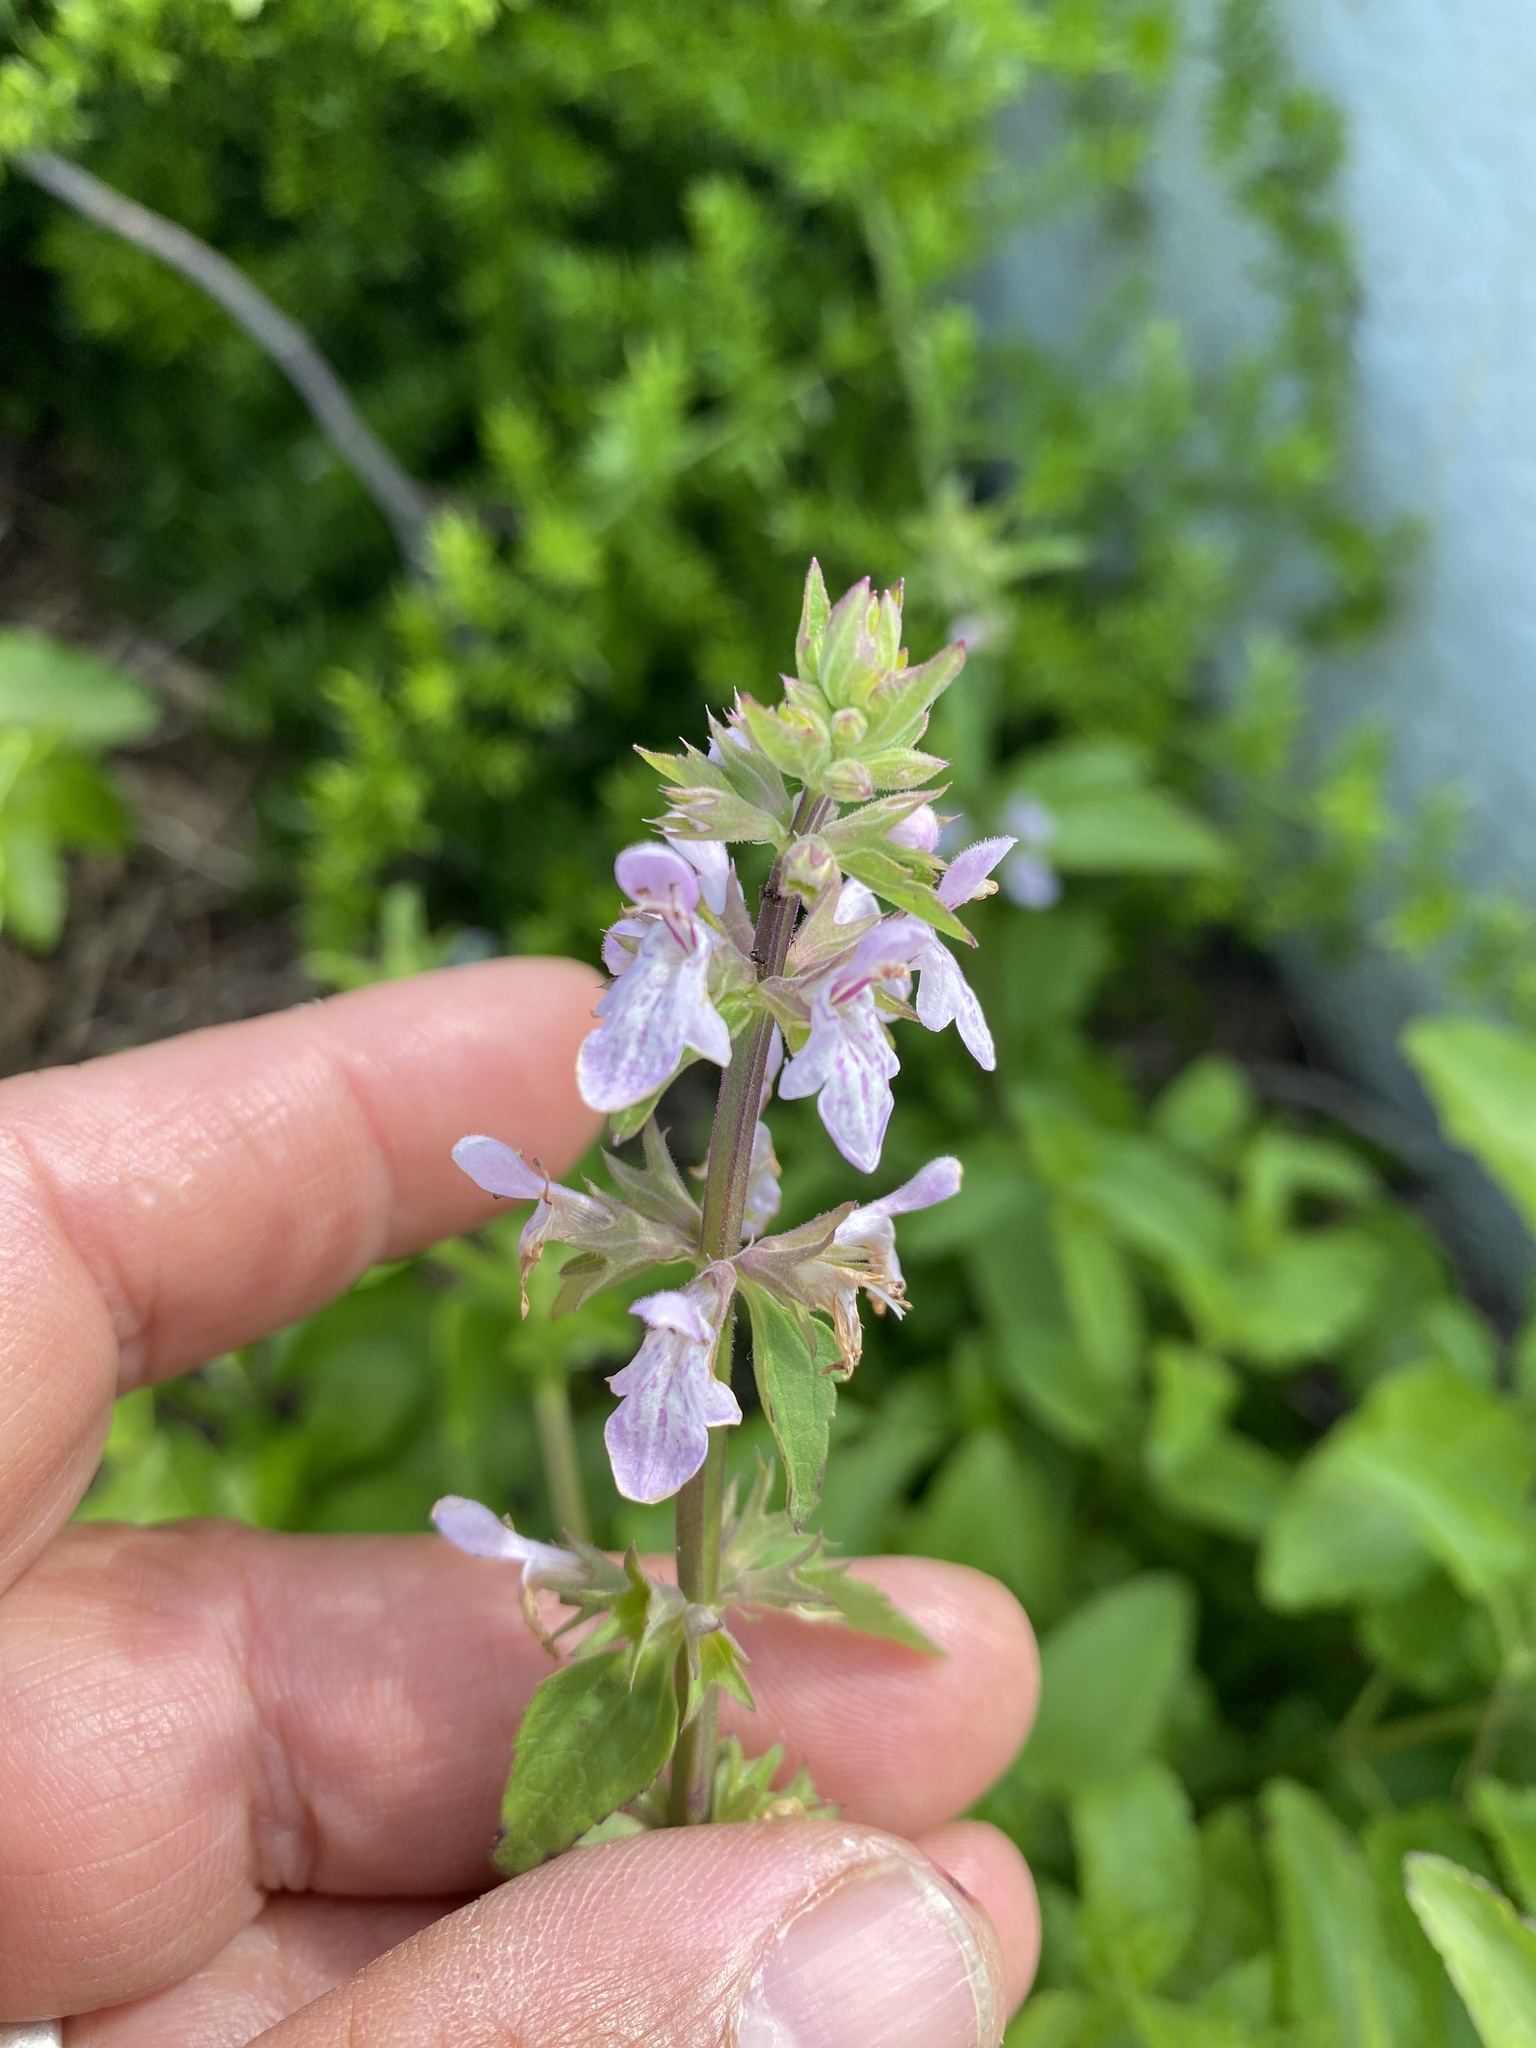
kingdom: Plantae
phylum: Tracheophyta
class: Magnoliopsida
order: Lamiales
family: Lamiaceae
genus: Stachys
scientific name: Stachys floridana
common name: Florida betony
